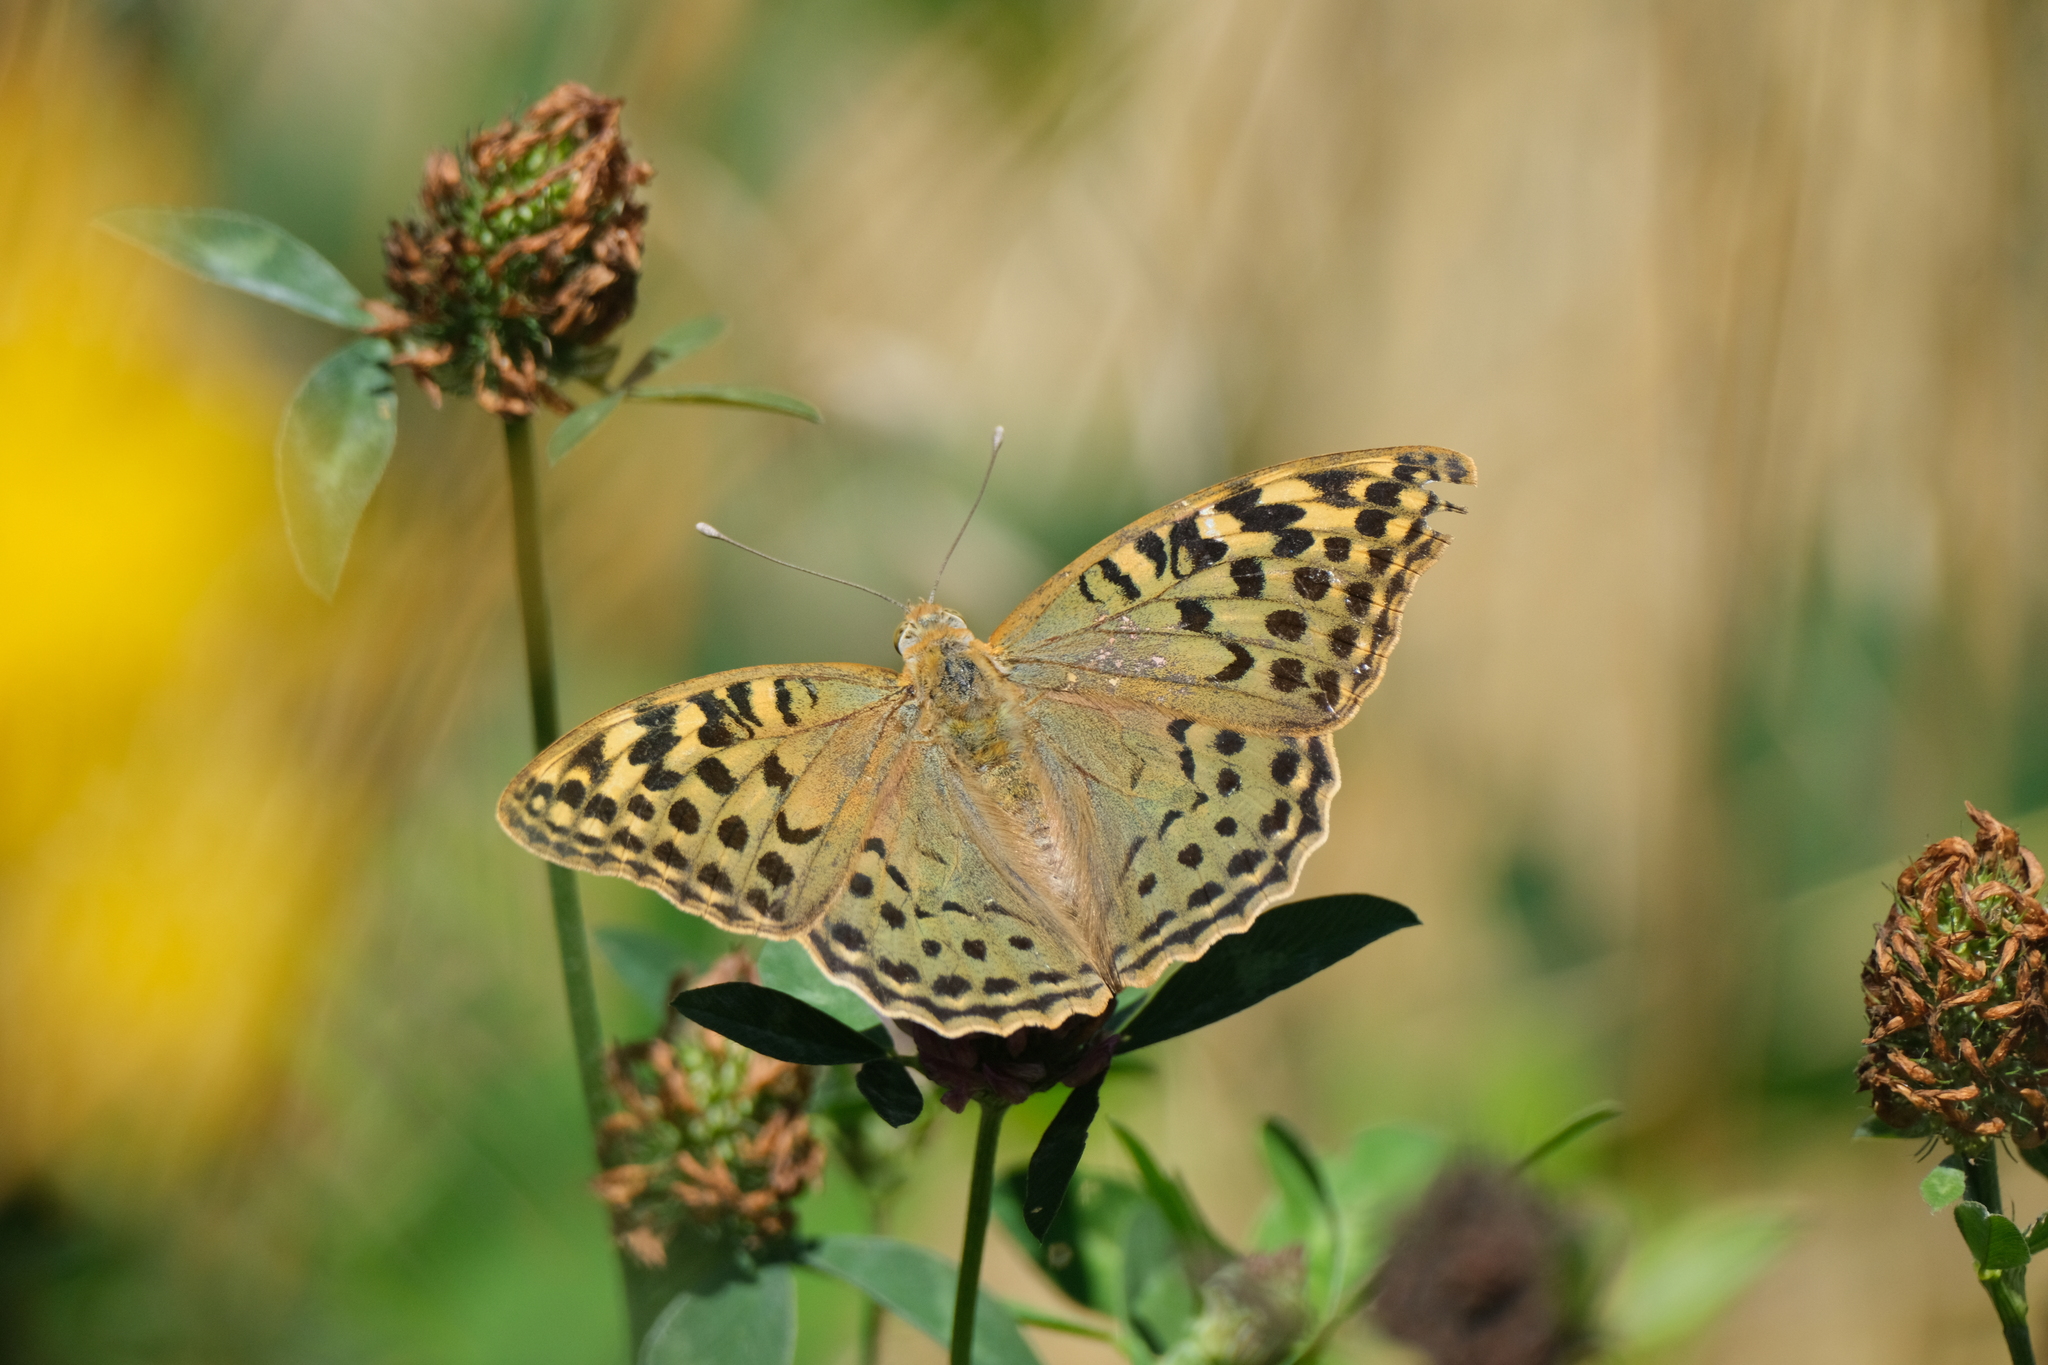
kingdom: Animalia
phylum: Arthropoda
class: Insecta
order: Lepidoptera
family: Nymphalidae
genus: Damora
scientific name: Damora pandora
